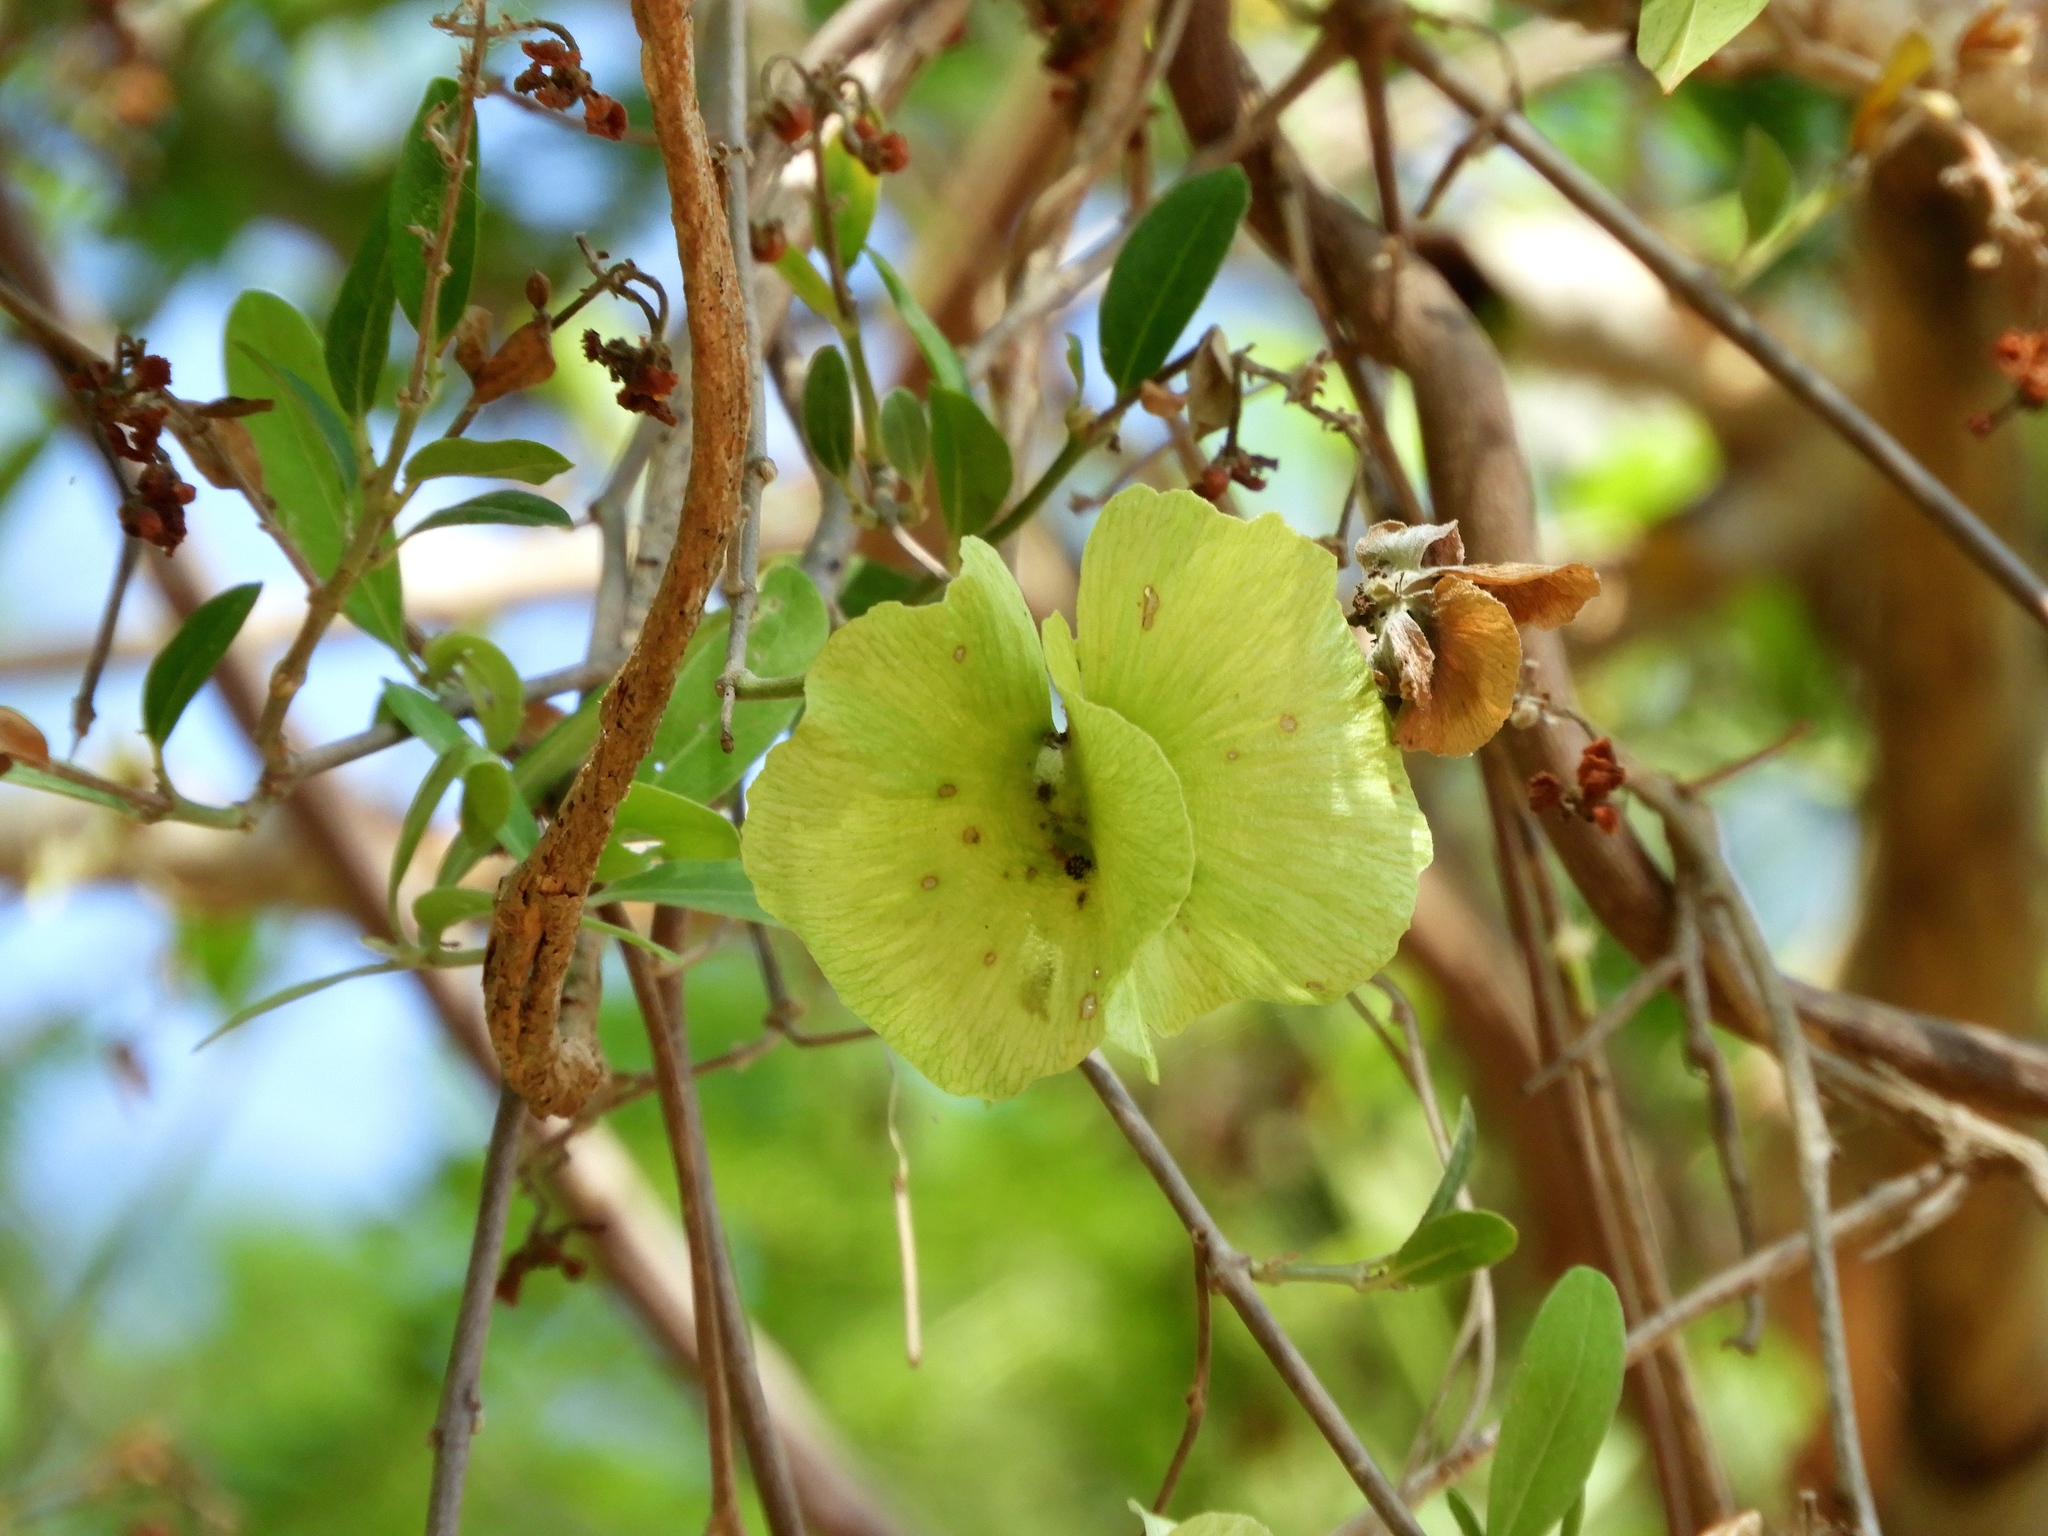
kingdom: Plantae
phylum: Tracheophyta
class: Magnoliopsida
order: Malpighiales
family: Malpighiaceae
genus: Callaeum
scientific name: Callaeum macropterum
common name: Mexican butterfly-vine
